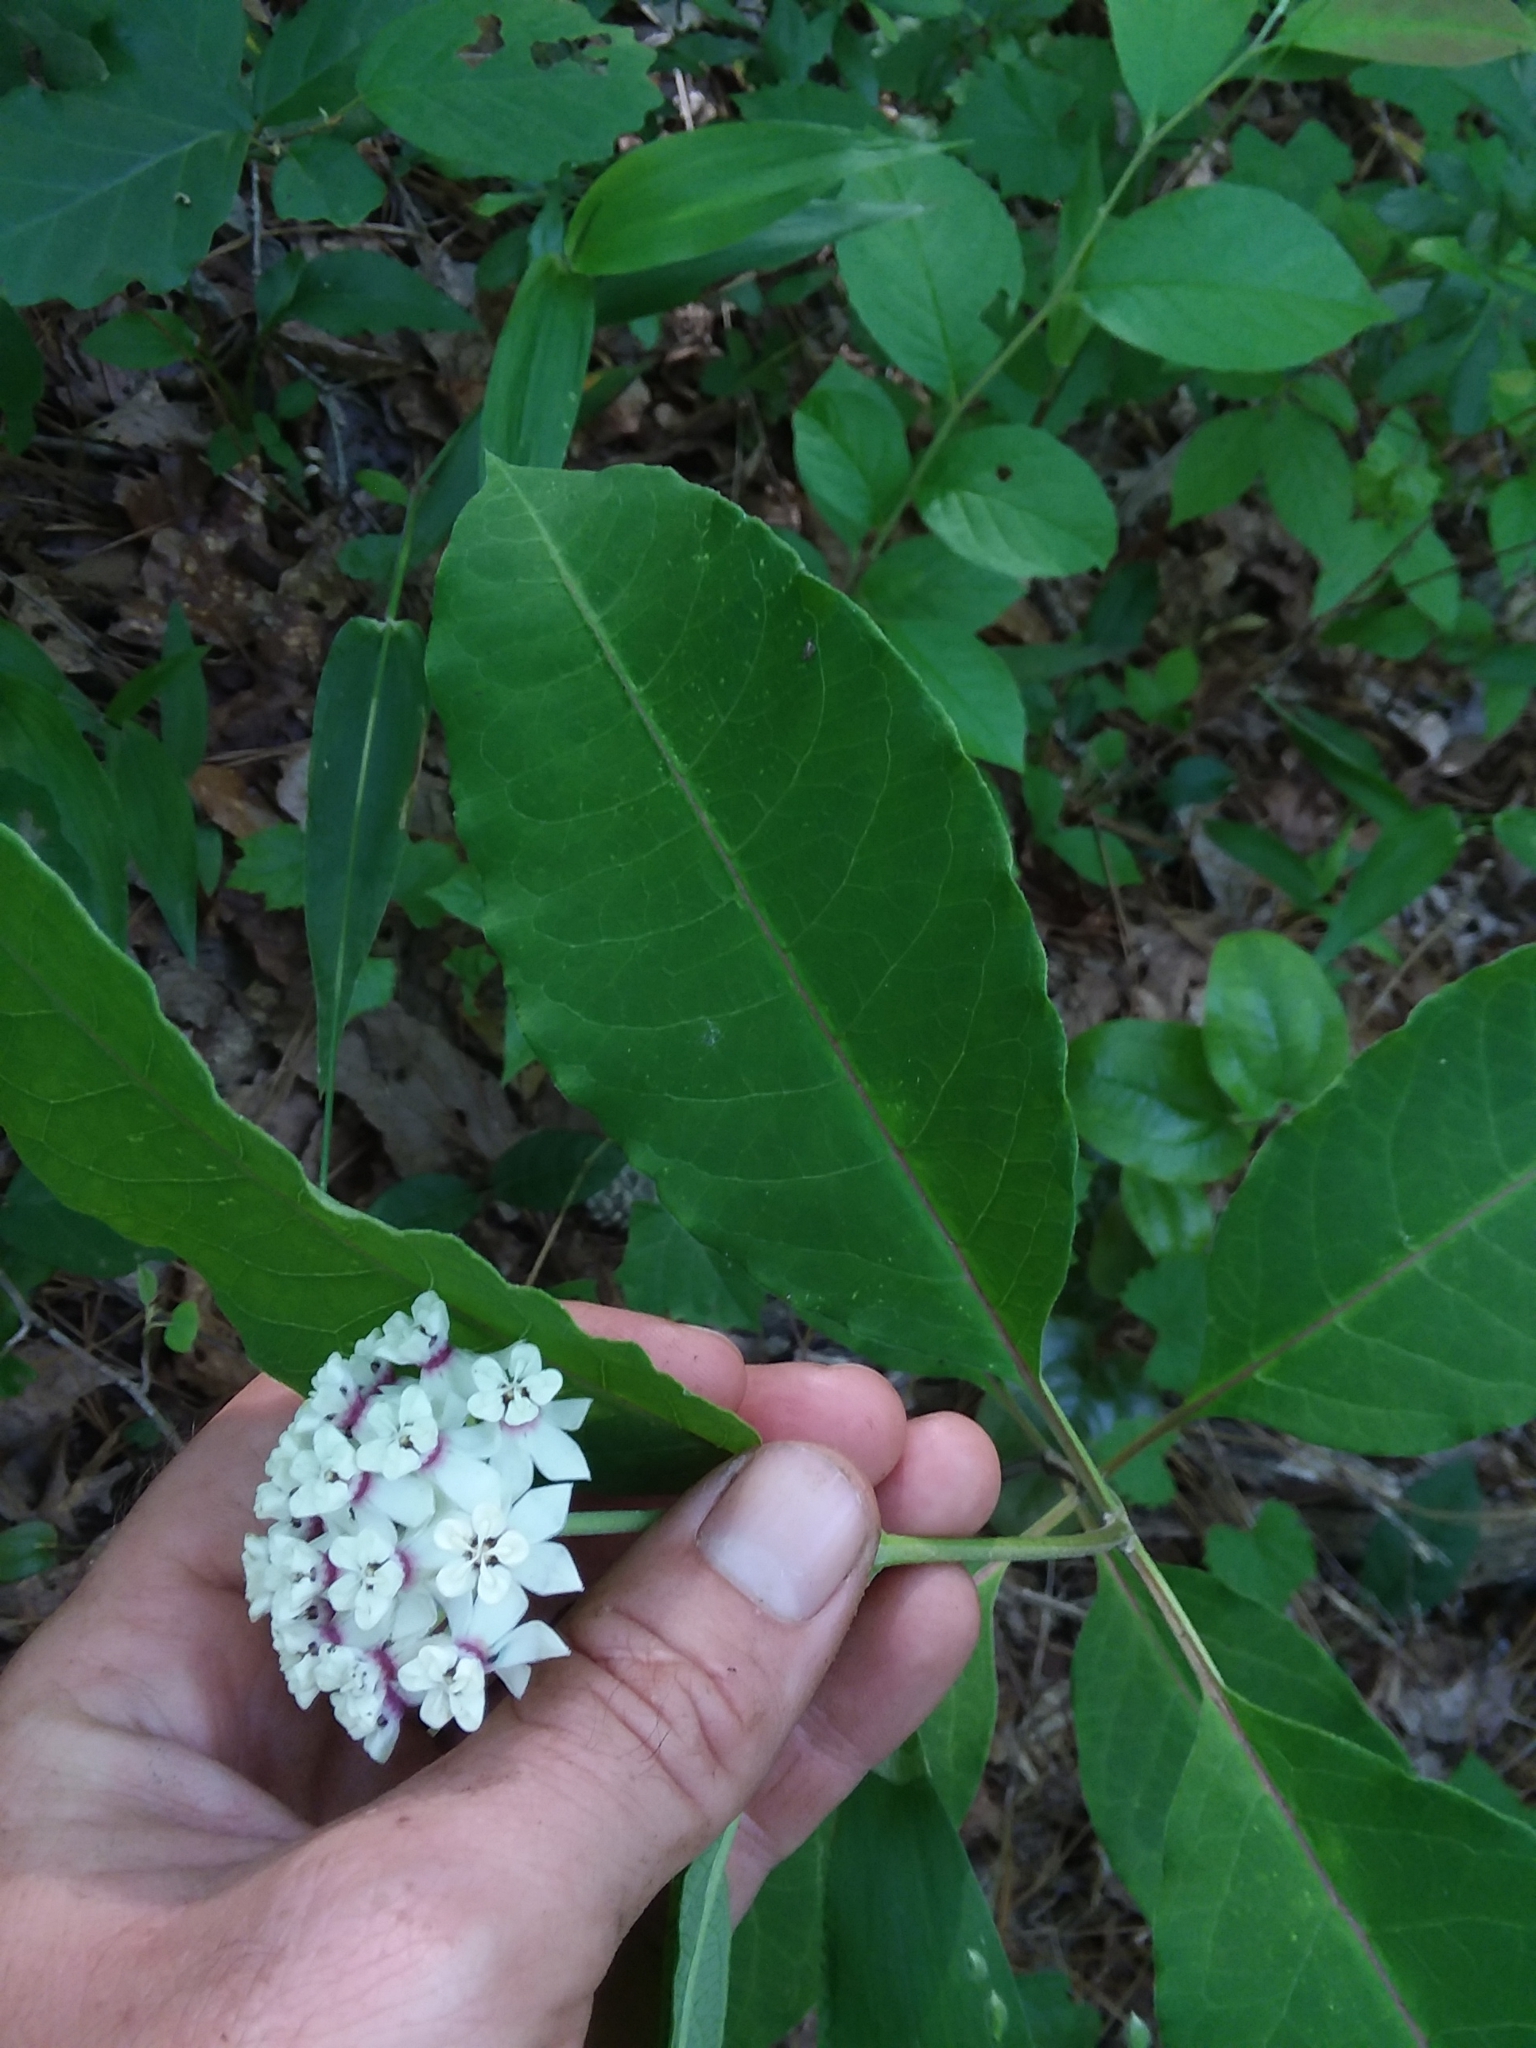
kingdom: Plantae
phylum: Tracheophyta
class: Magnoliopsida
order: Gentianales
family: Apocynaceae
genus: Asclepias
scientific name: Asclepias variegata
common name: Variegated milkweed
